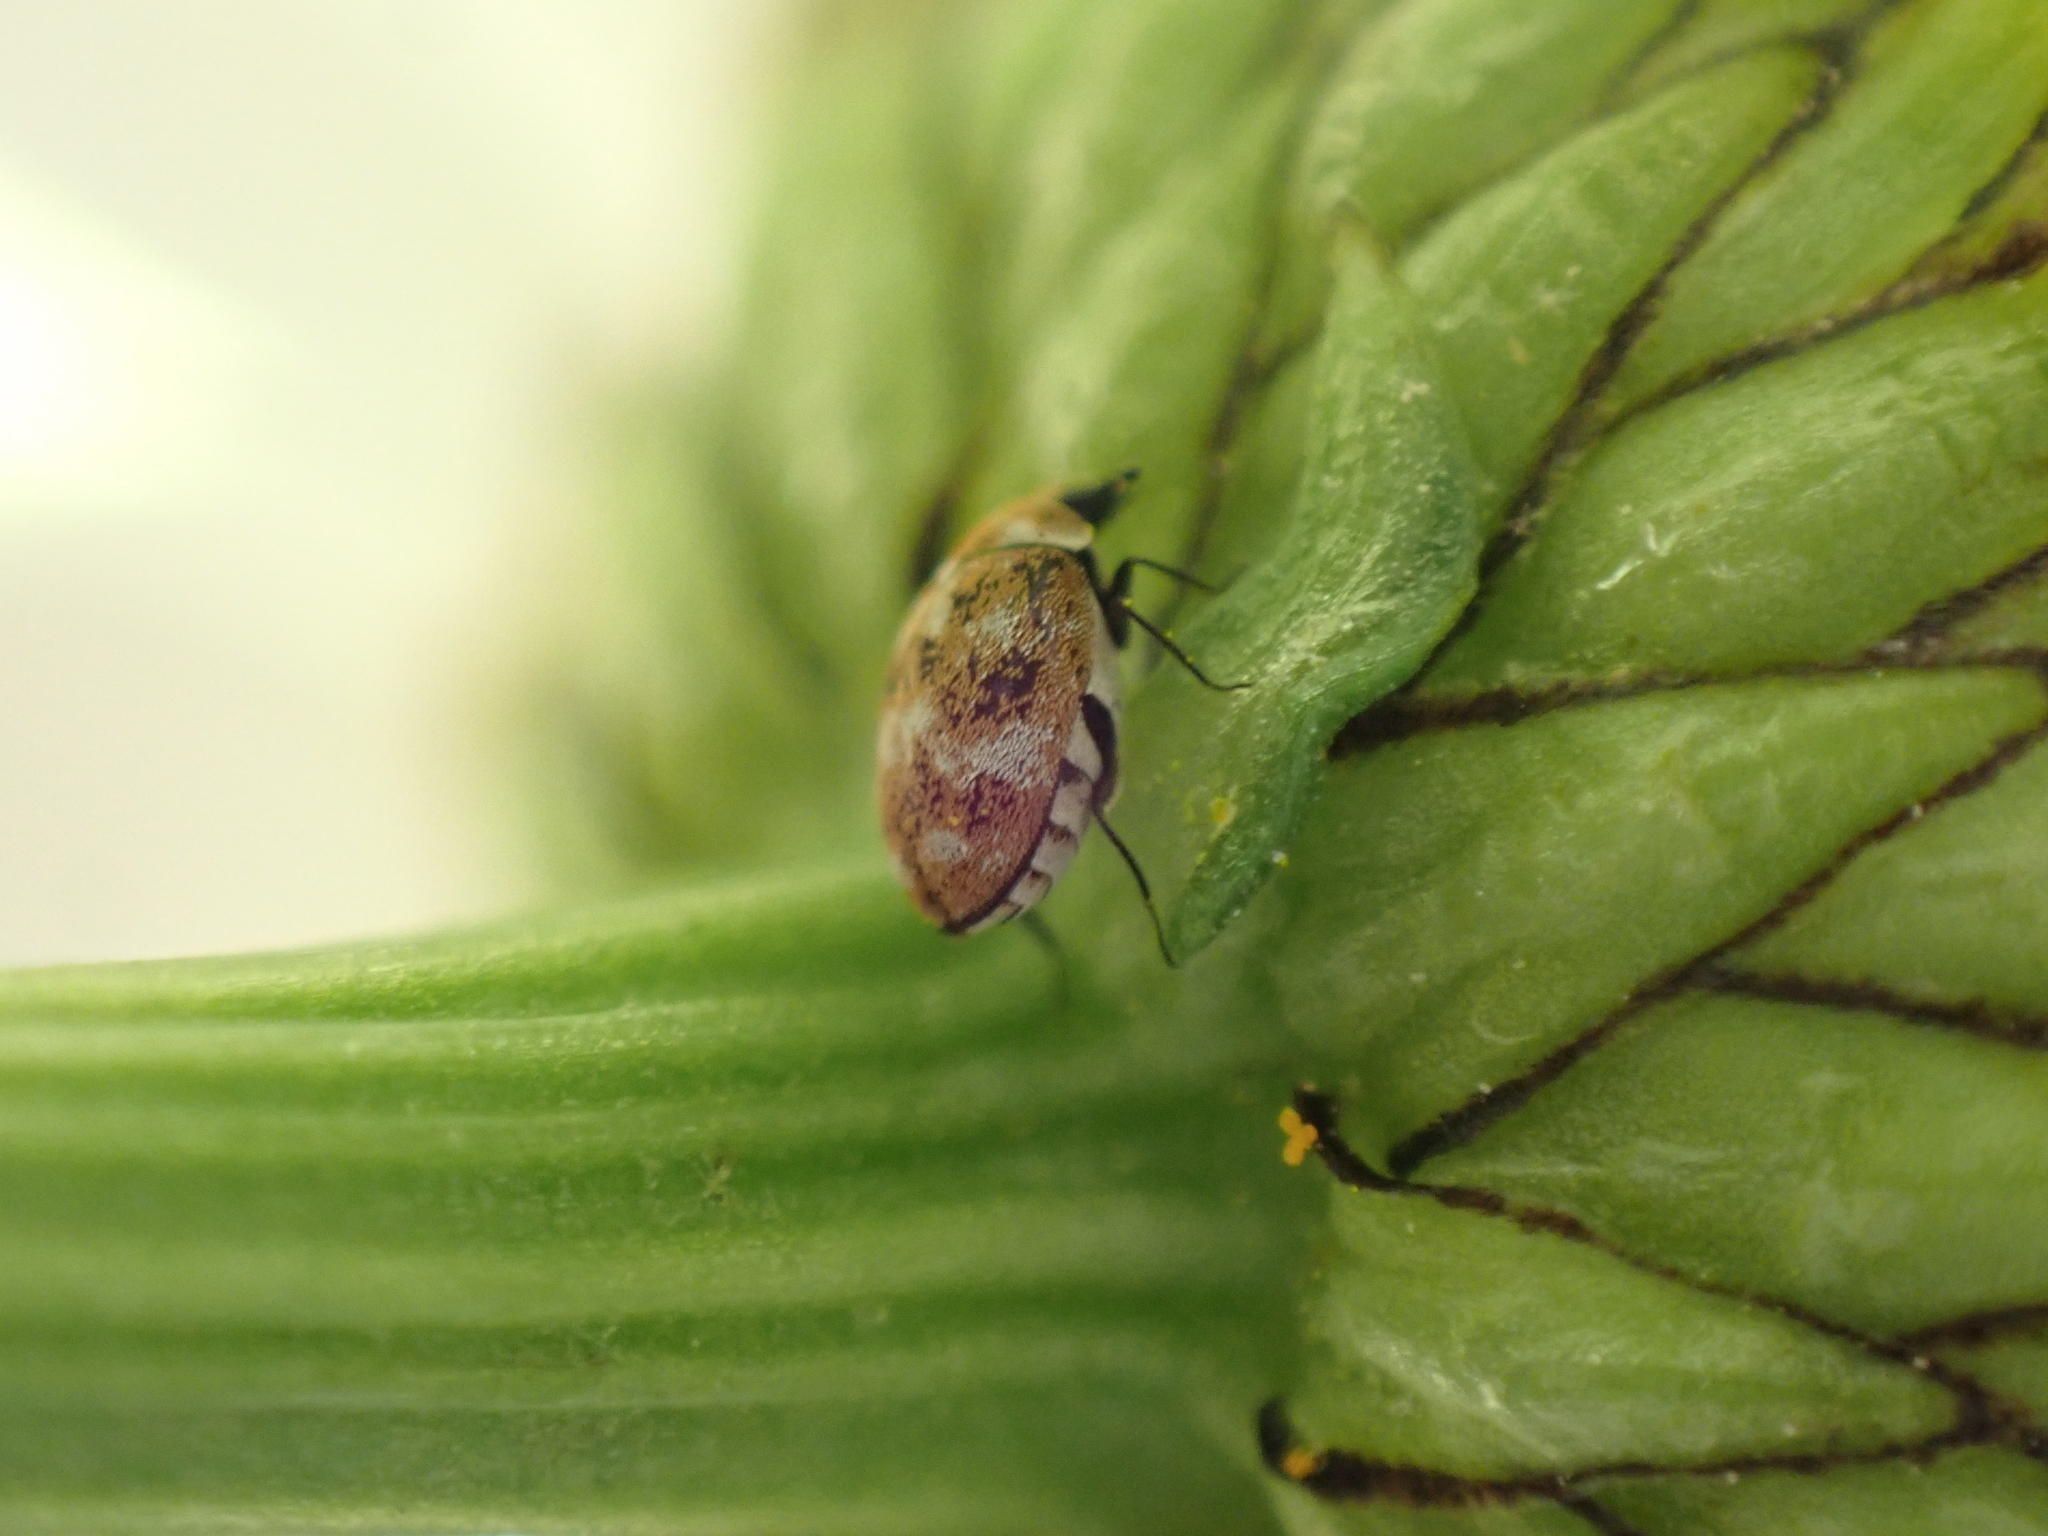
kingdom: Animalia
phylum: Arthropoda
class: Insecta
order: Coleoptera
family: Dermestidae
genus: Anthrenus
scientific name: Anthrenus verbasci
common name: Varied carpet beetle
